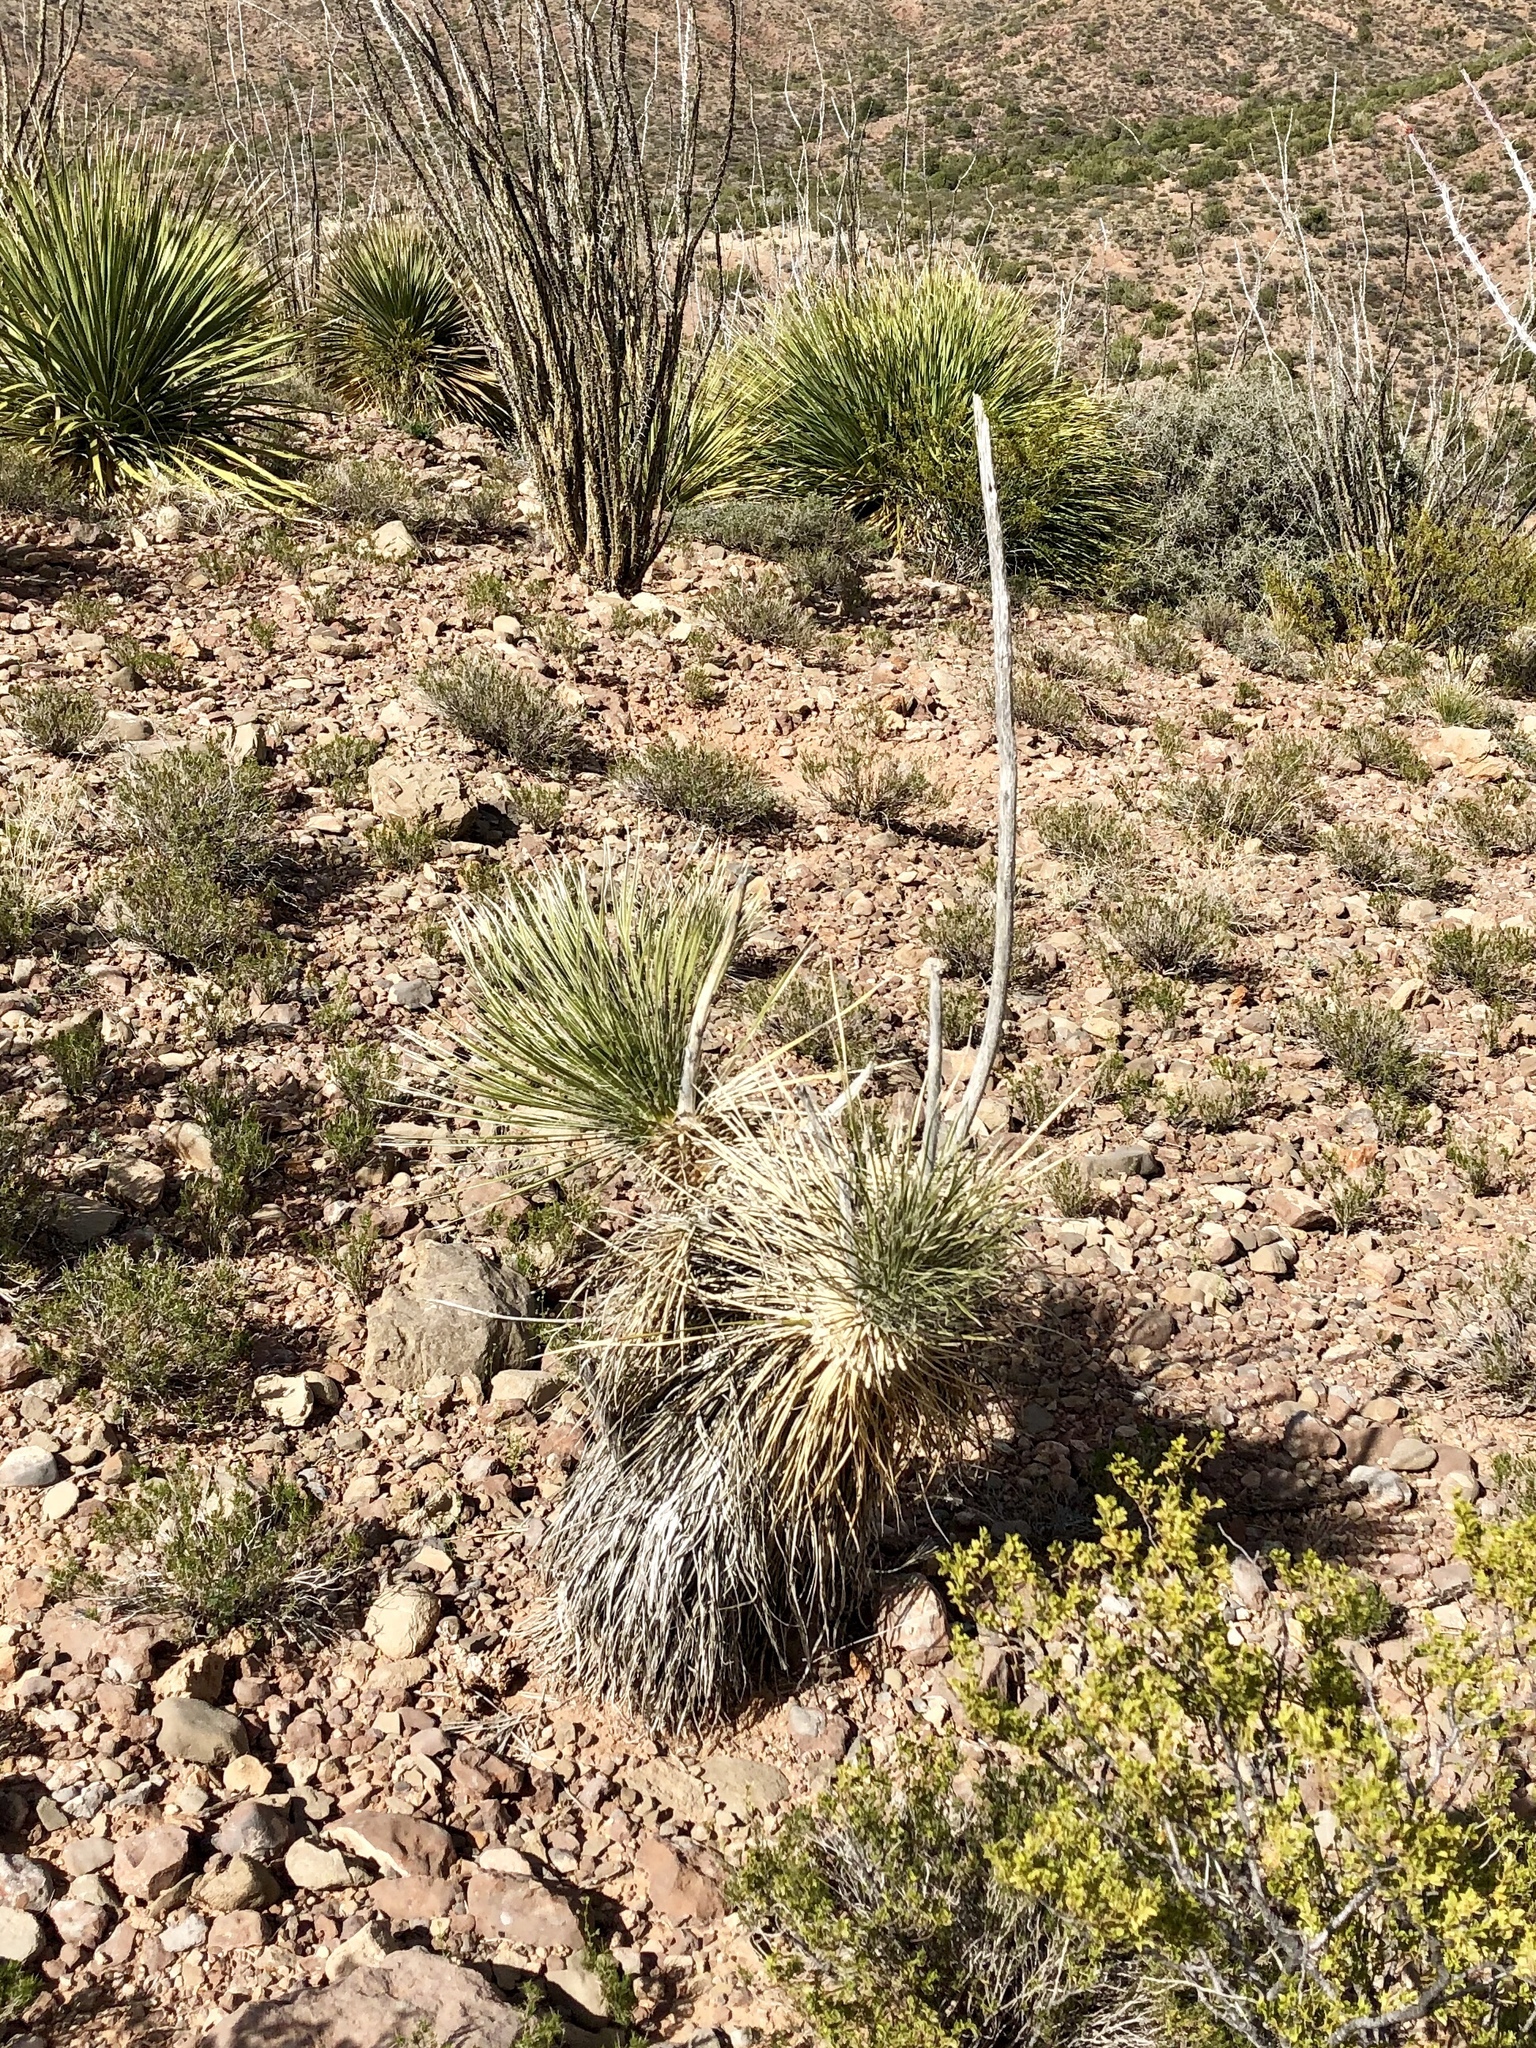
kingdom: Plantae
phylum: Tracheophyta
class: Liliopsida
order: Asparagales
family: Asparagaceae
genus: Yucca
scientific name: Yucca elata
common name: Palmella
